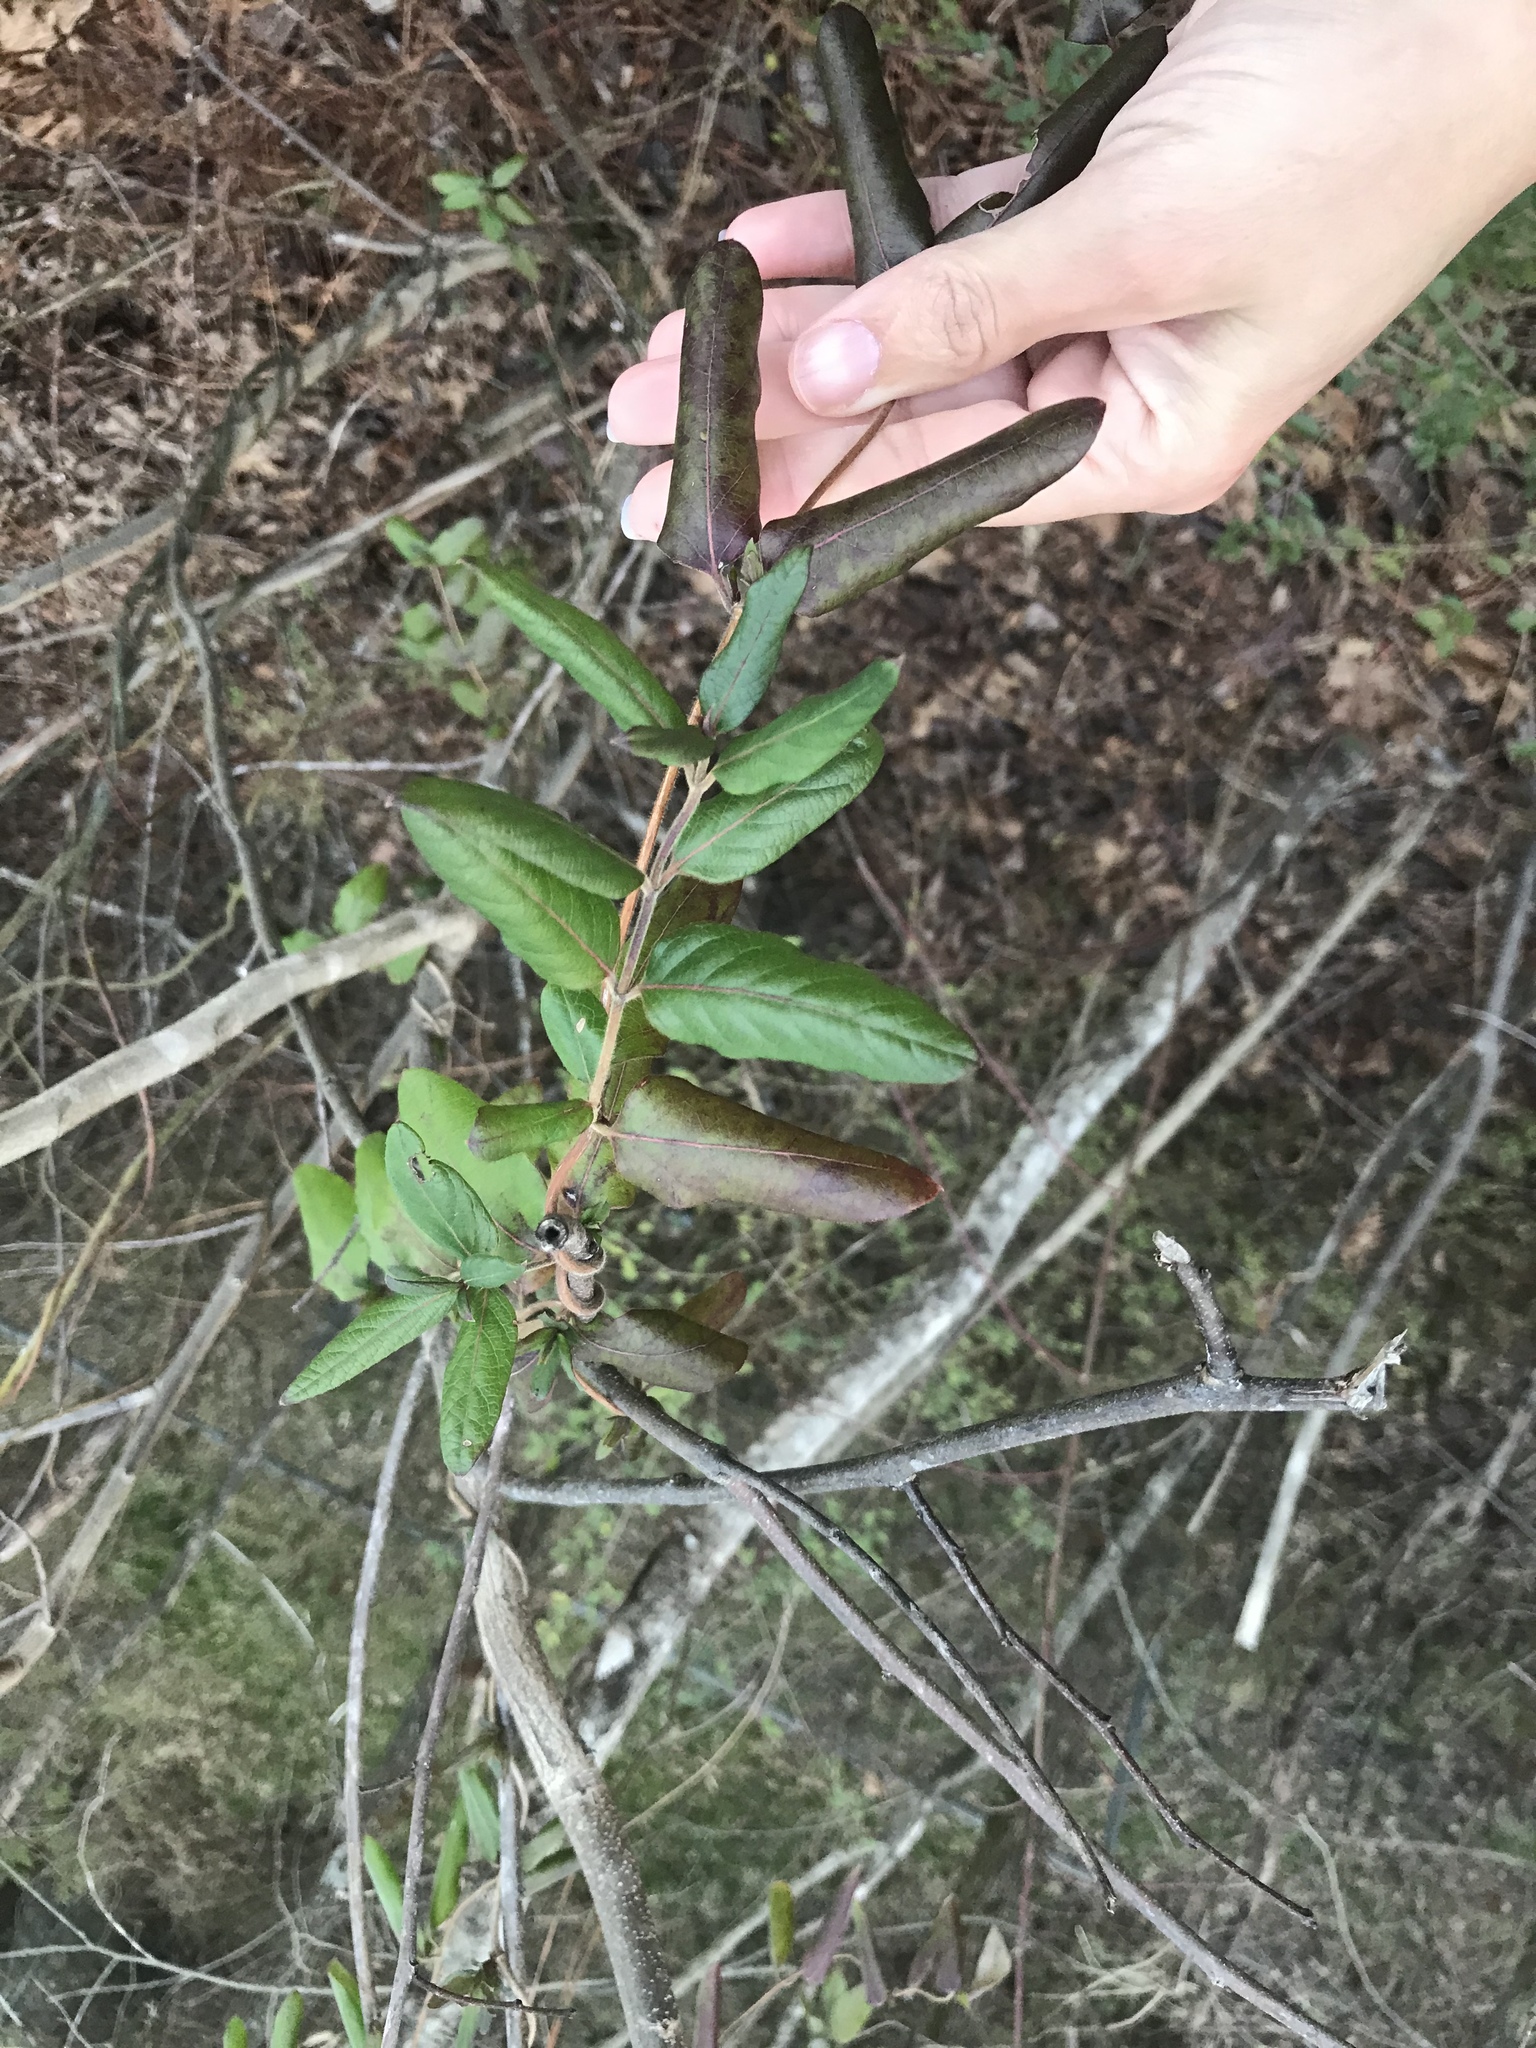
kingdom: Plantae
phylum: Tracheophyta
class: Magnoliopsida
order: Dipsacales
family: Caprifoliaceae
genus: Lonicera
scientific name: Lonicera japonica
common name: Japanese honeysuckle
